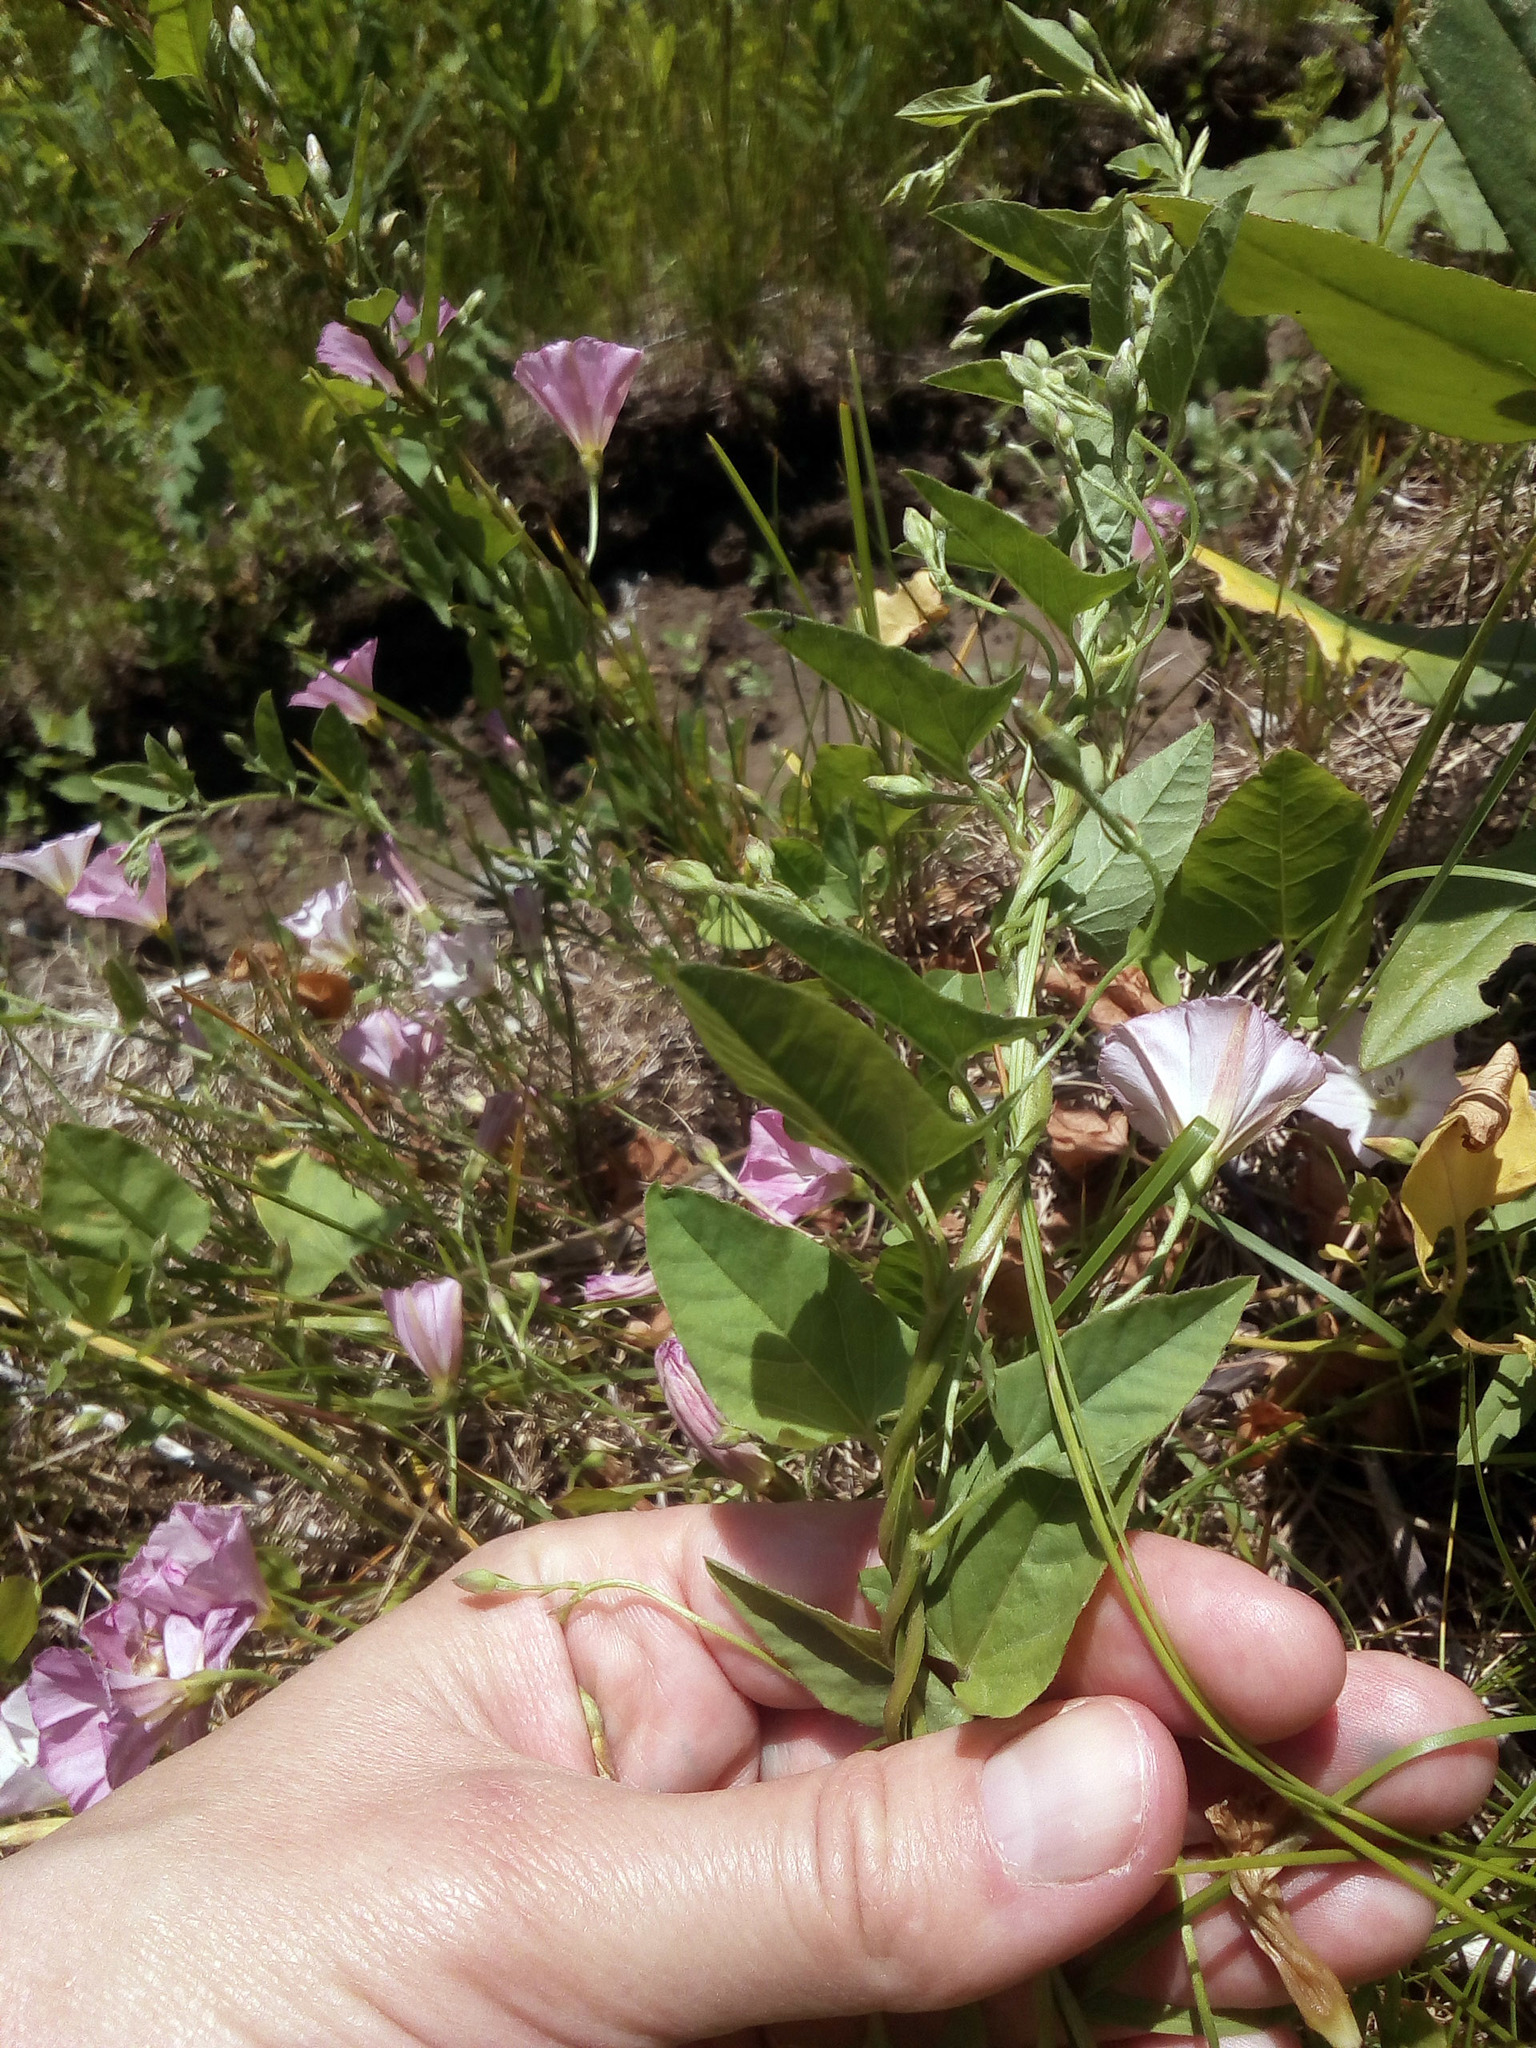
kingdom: Plantae
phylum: Tracheophyta
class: Magnoliopsida
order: Solanales
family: Convolvulaceae
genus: Convolvulus
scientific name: Convolvulus arvensis
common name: Field bindweed
